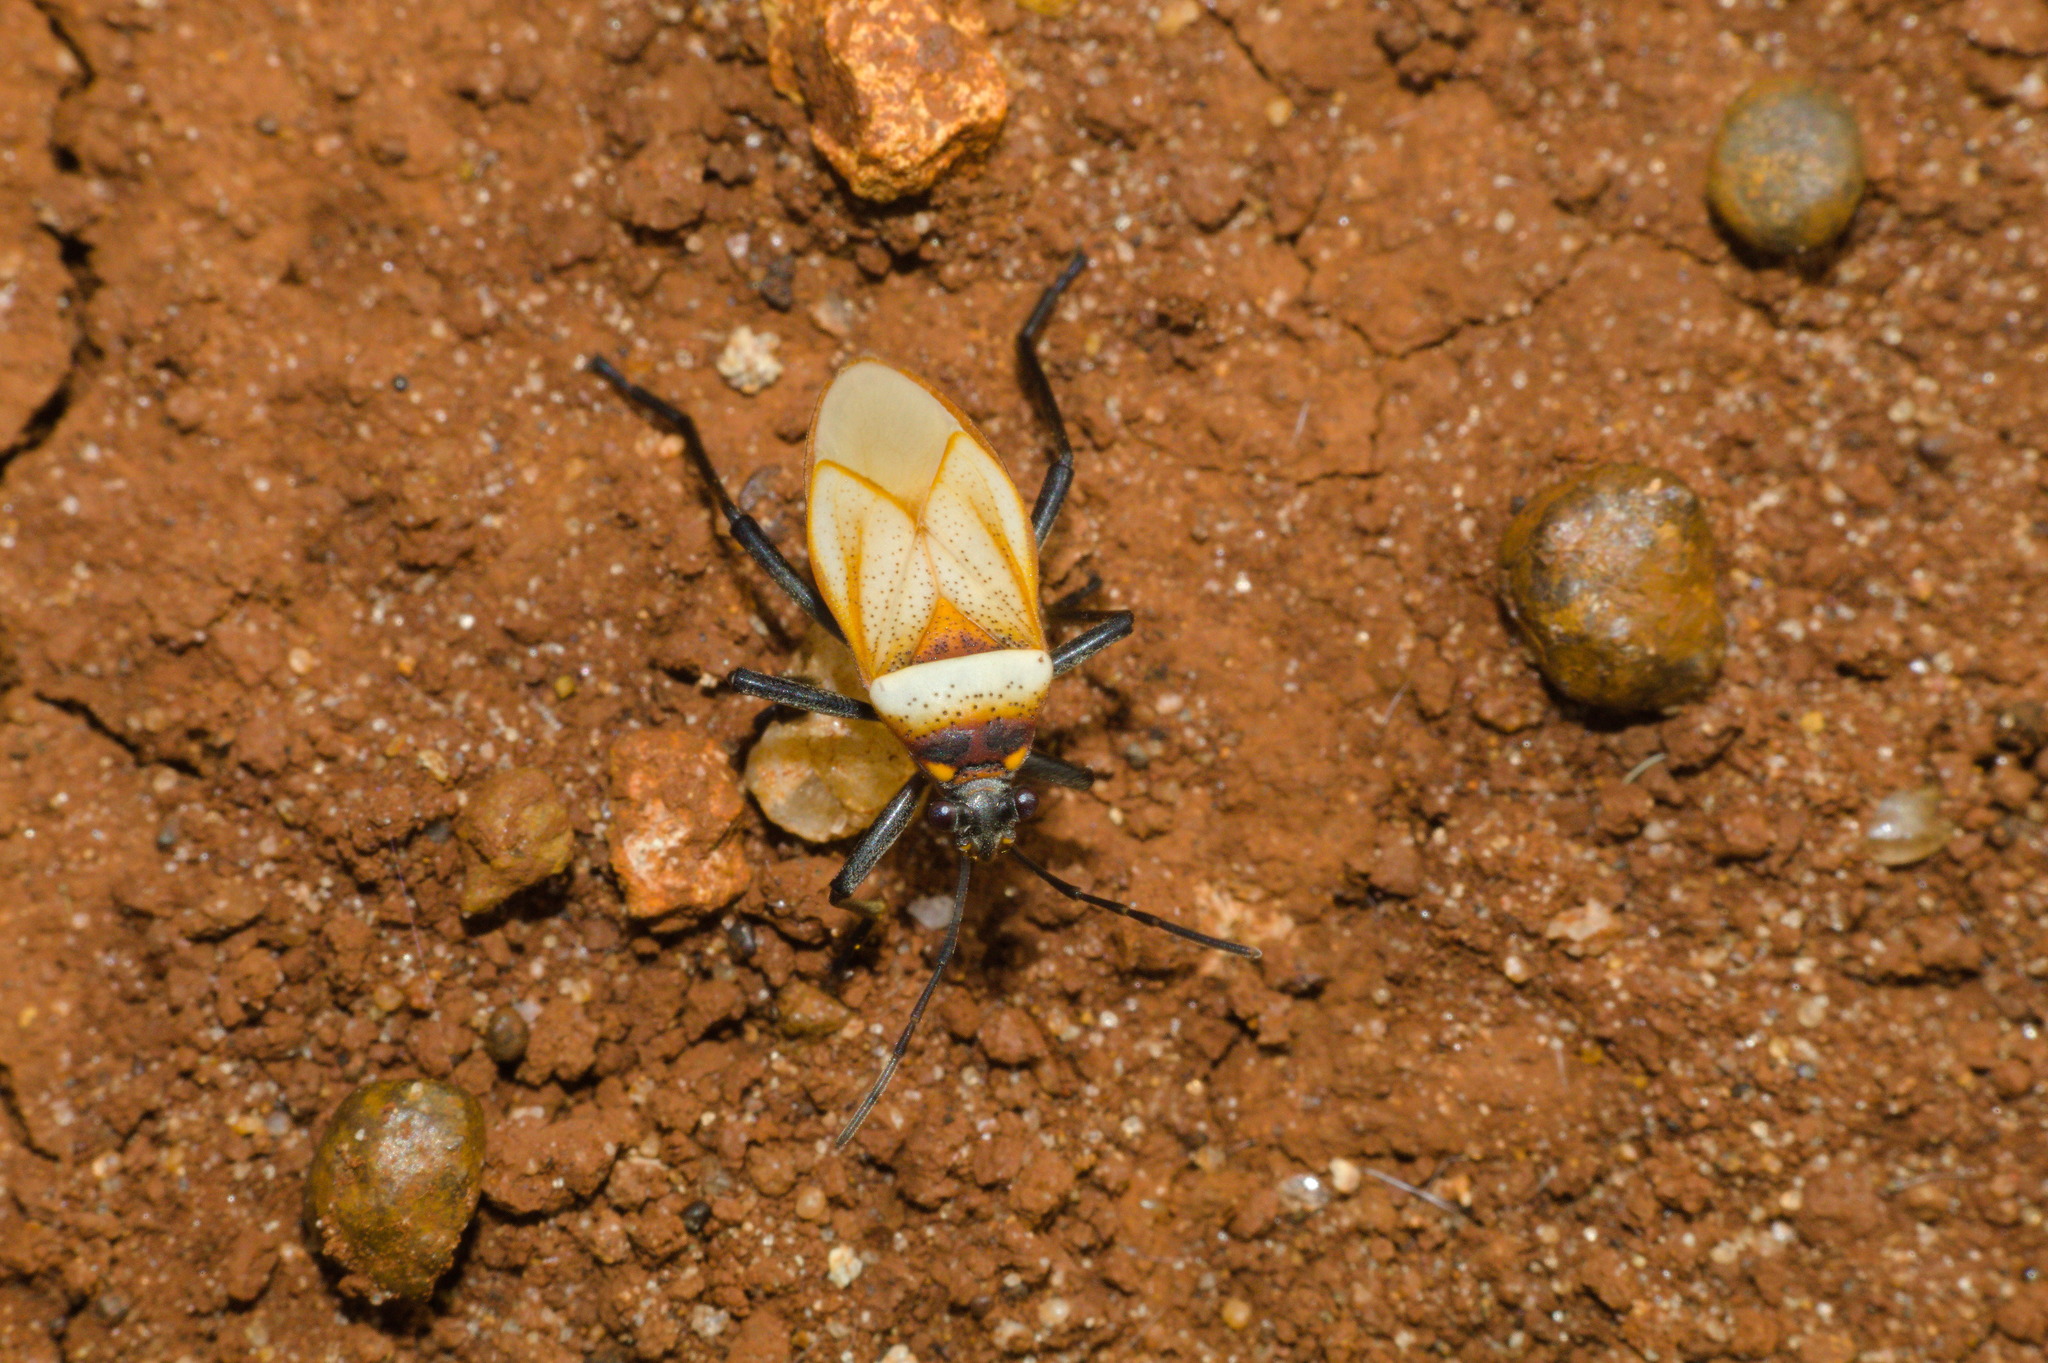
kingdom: Animalia
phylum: Arthropoda
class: Insecta
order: Hemiptera
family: Largidae
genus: Largus
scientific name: Largus trochanterus
